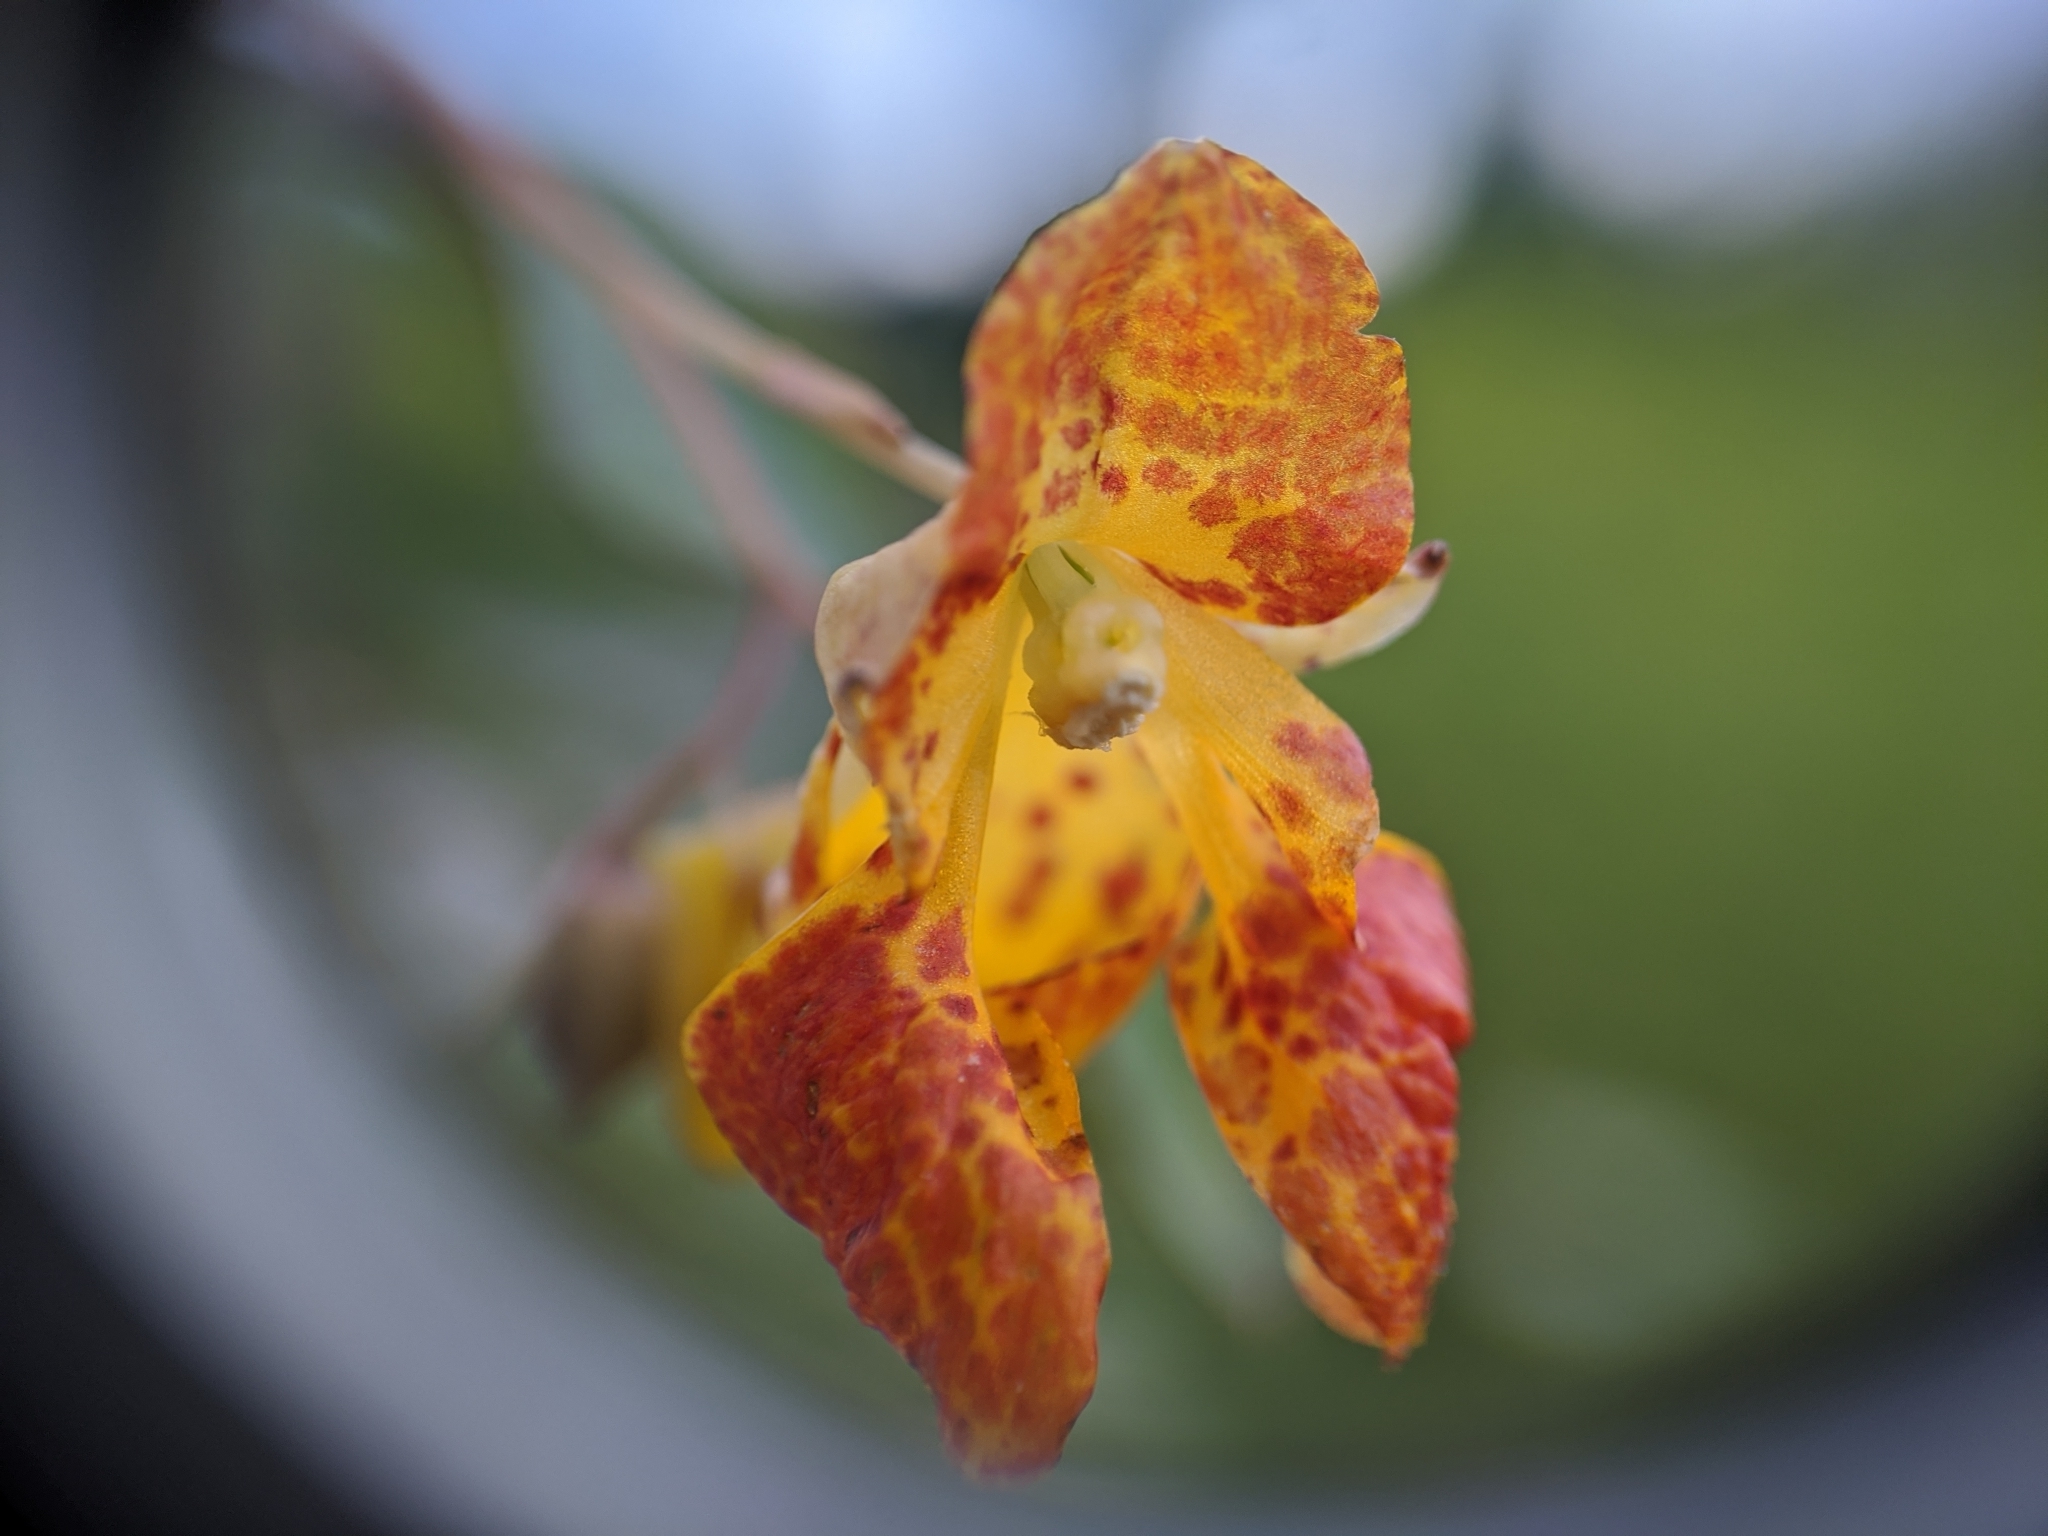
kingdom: Plantae
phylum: Tracheophyta
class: Magnoliopsida
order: Ericales
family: Balsaminaceae
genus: Impatiens
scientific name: Impatiens capensis
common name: Orange balsam
